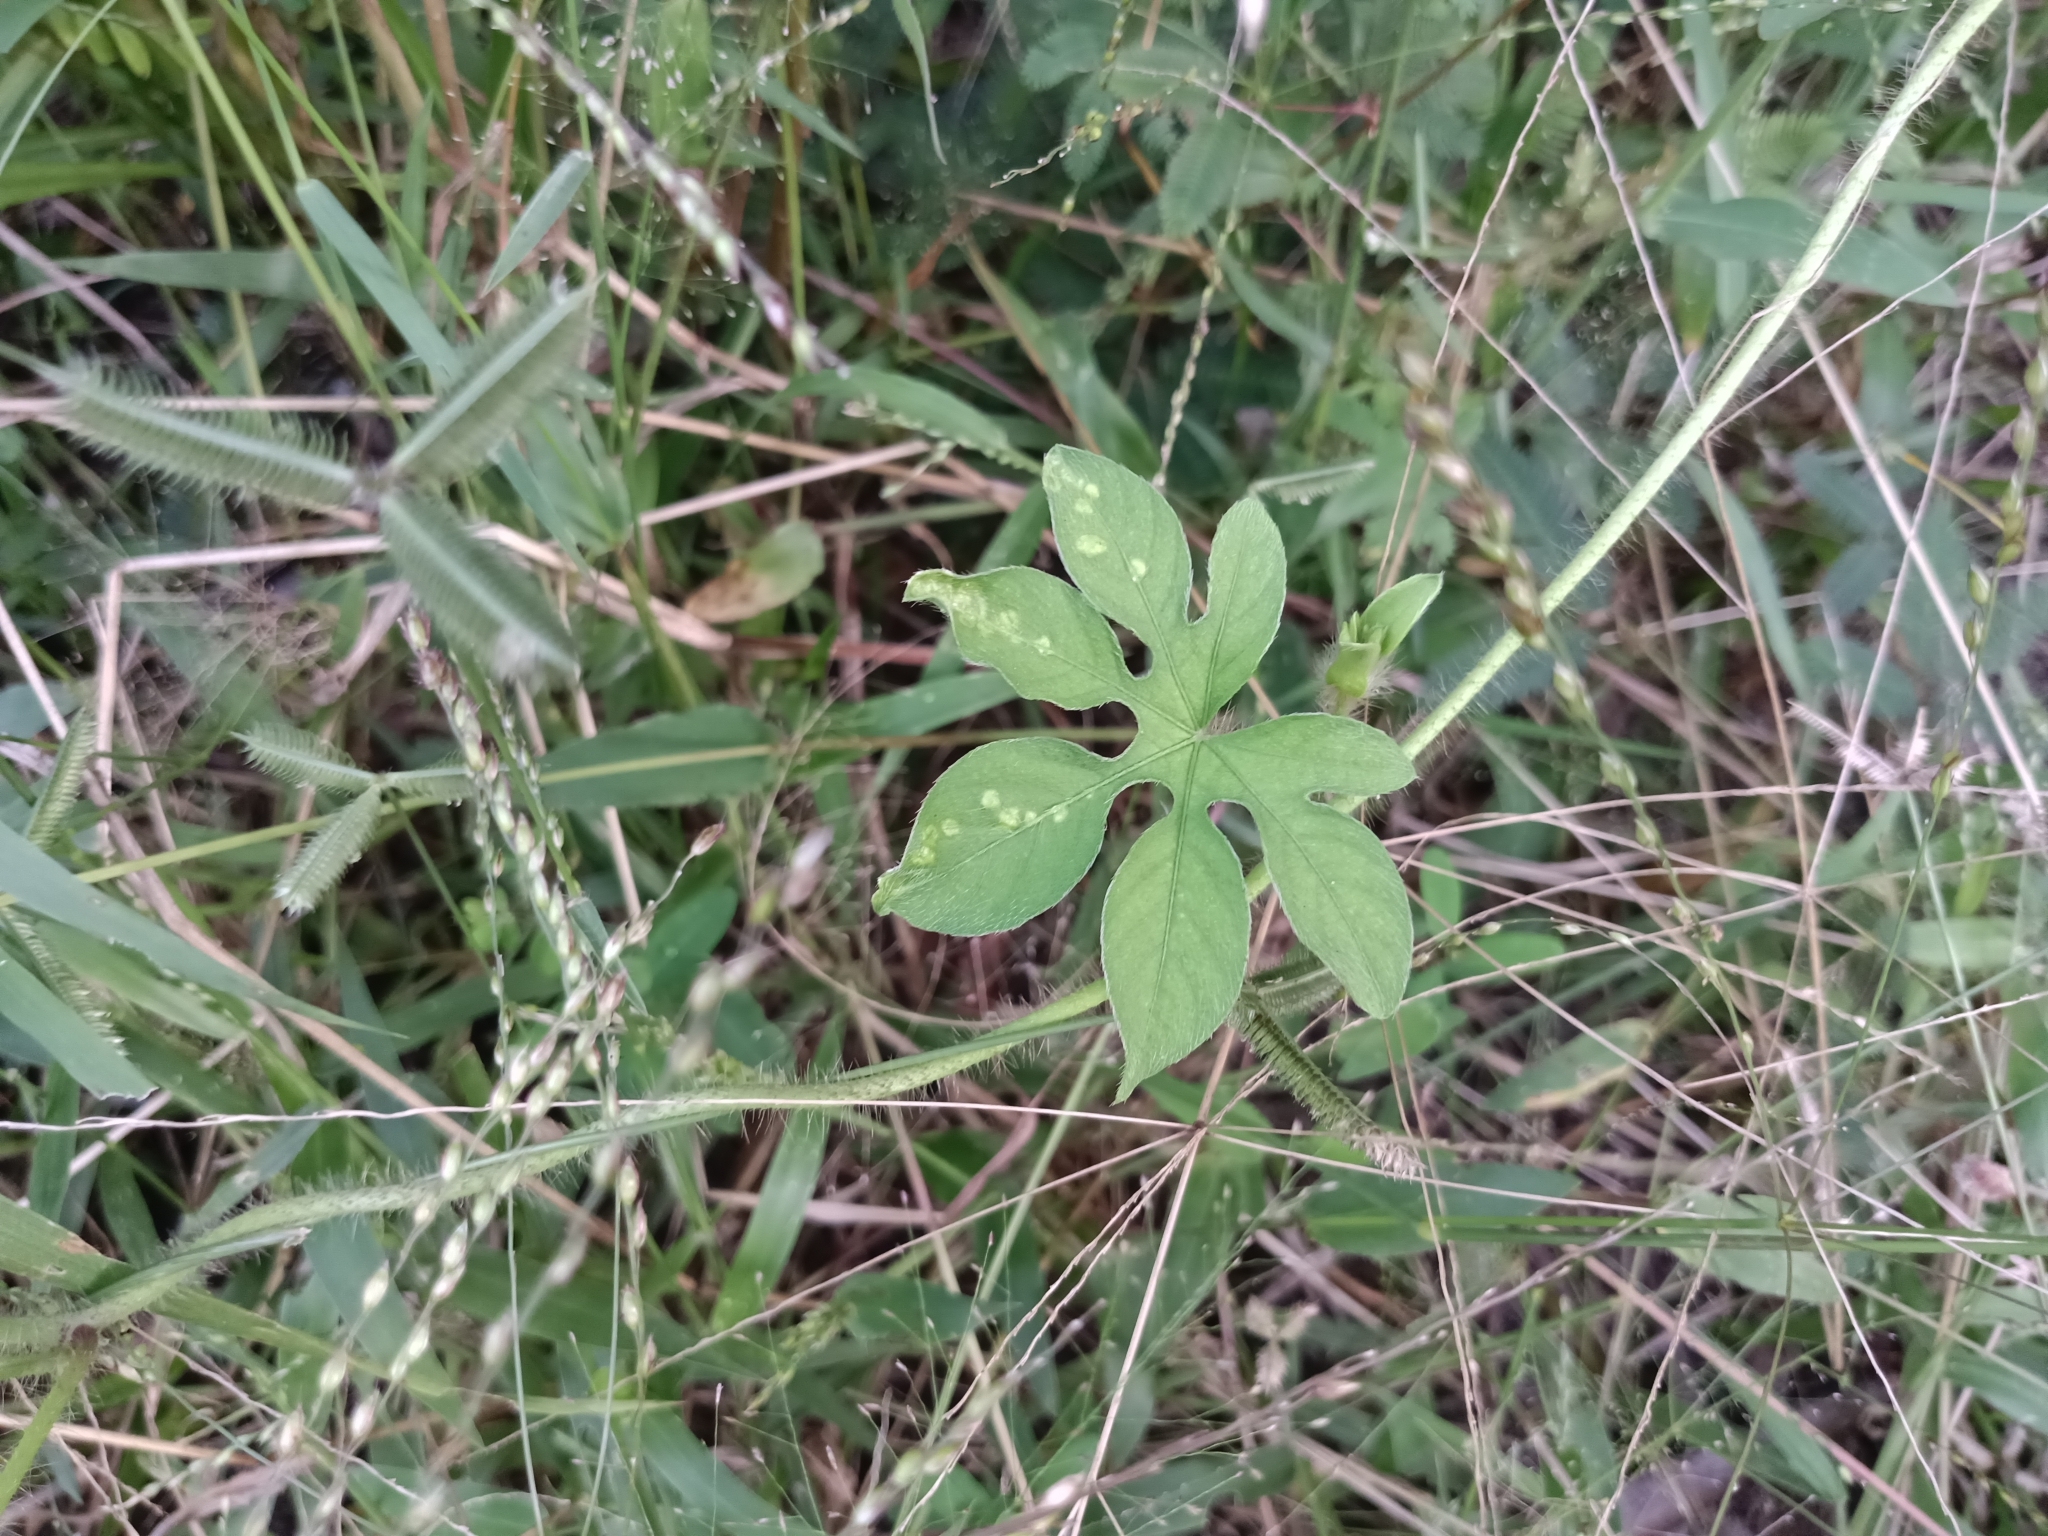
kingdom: Plantae
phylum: Tracheophyta
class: Magnoliopsida
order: Solanales
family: Convolvulaceae
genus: Ipomoea
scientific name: Ipomoea pes-tigridis
